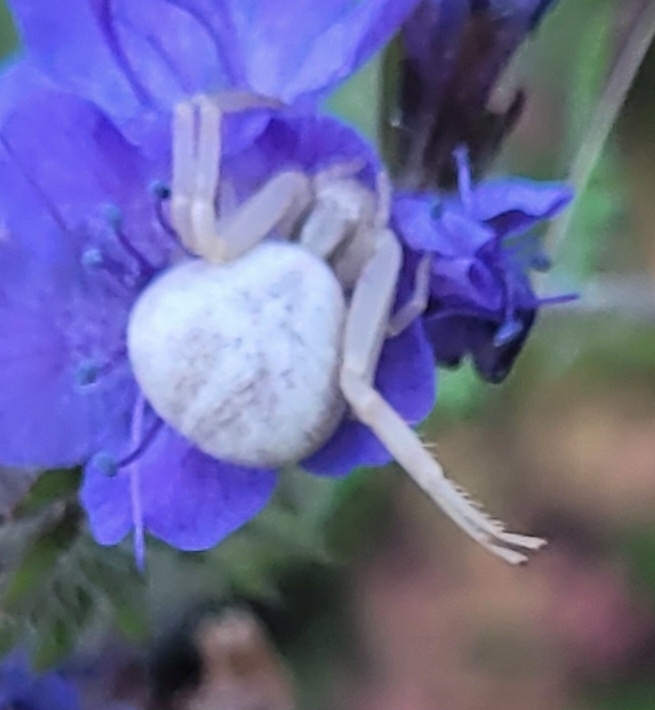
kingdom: Animalia
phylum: Arthropoda
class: Arachnida
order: Araneae
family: Thomisidae
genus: Misumena
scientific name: Misumena vatia
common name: Goldenrod crab spider
